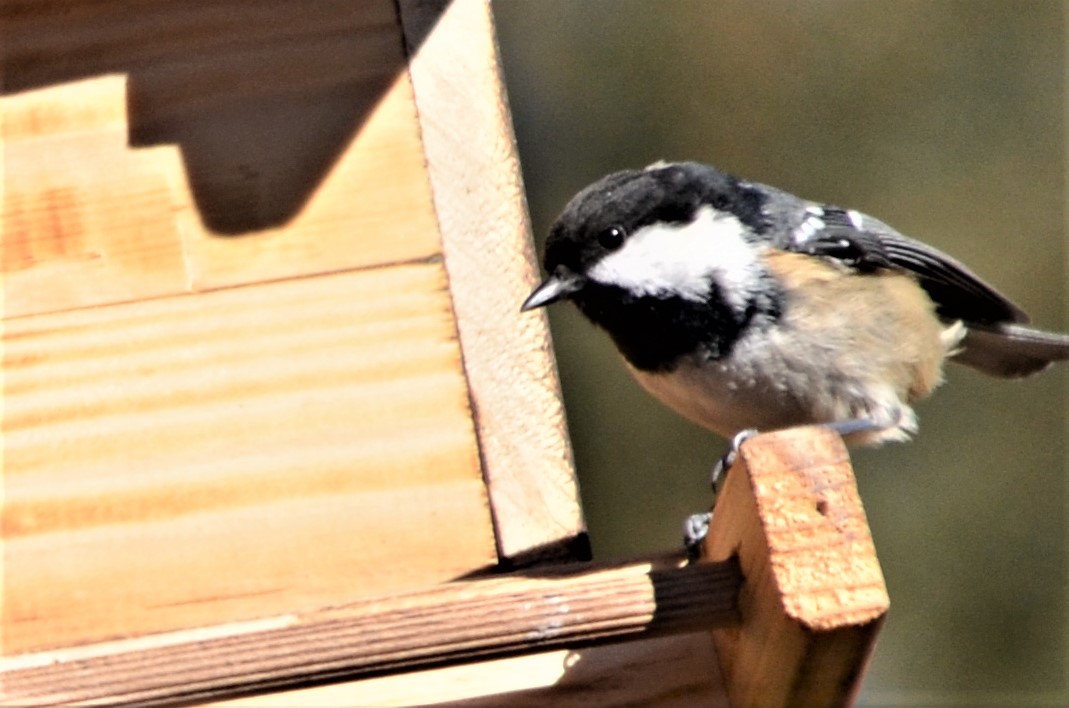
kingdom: Animalia
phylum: Chordata
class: Aves
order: Passeriformes
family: Paridae
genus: Periparus
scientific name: Periparus ater
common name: Coal tit
